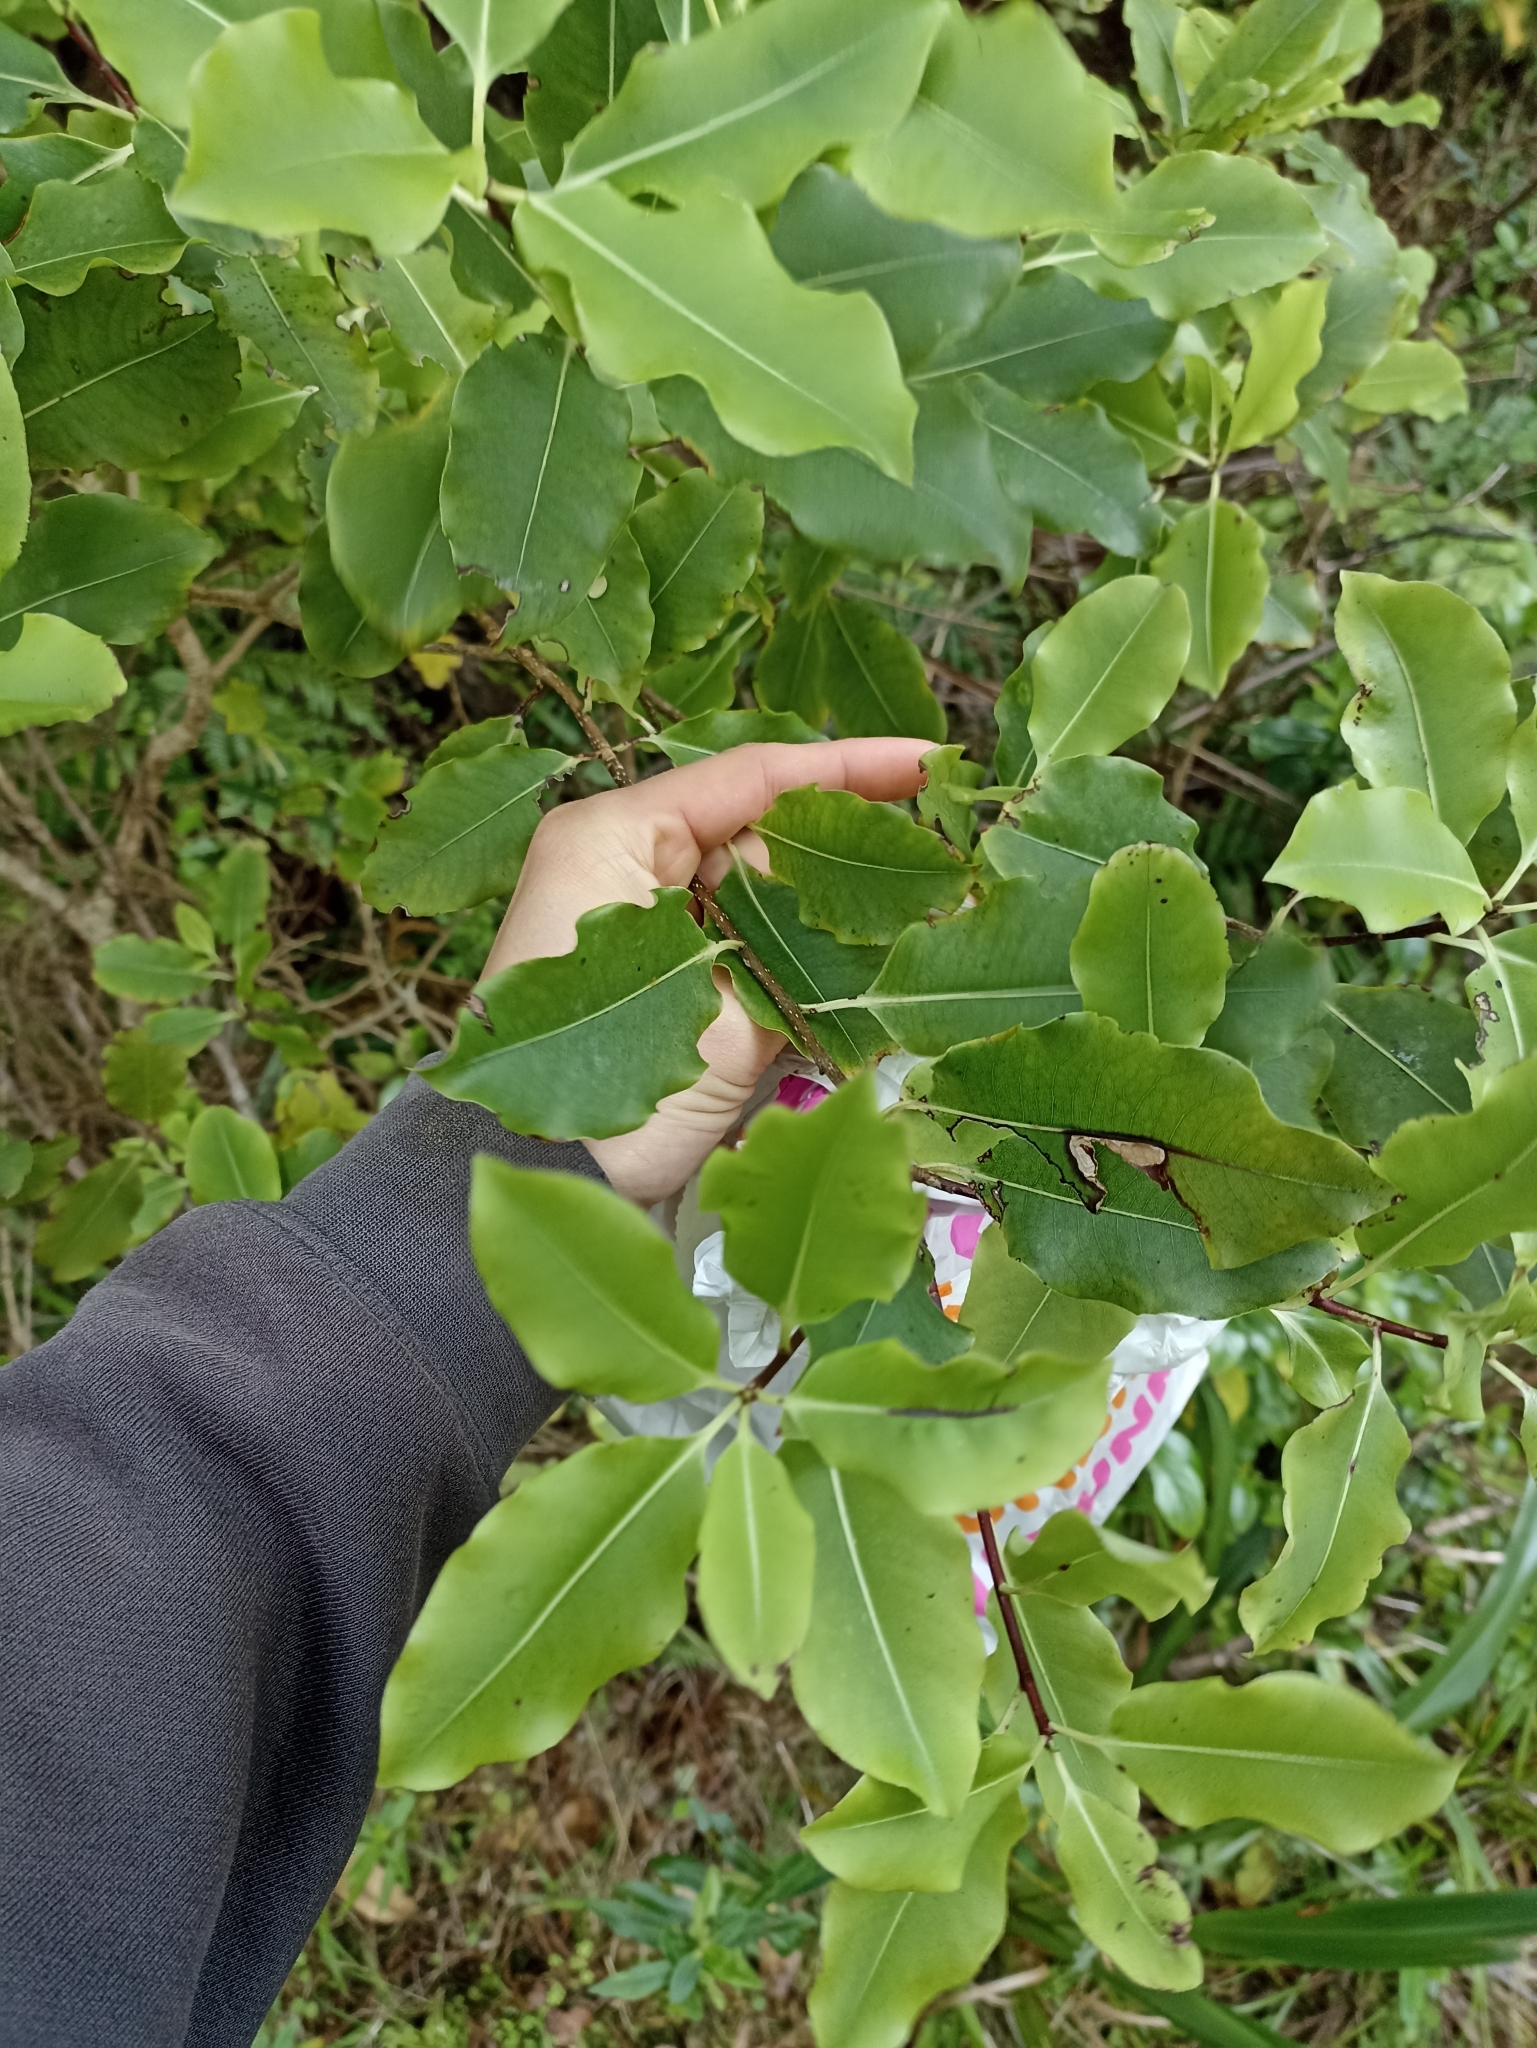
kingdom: Plantae
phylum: Tracheophyta
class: Magnoliopsida
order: Apiales
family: Pittosporaceae
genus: Pittosporum
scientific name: Pittosporum eugenioides
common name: Lemonwood
